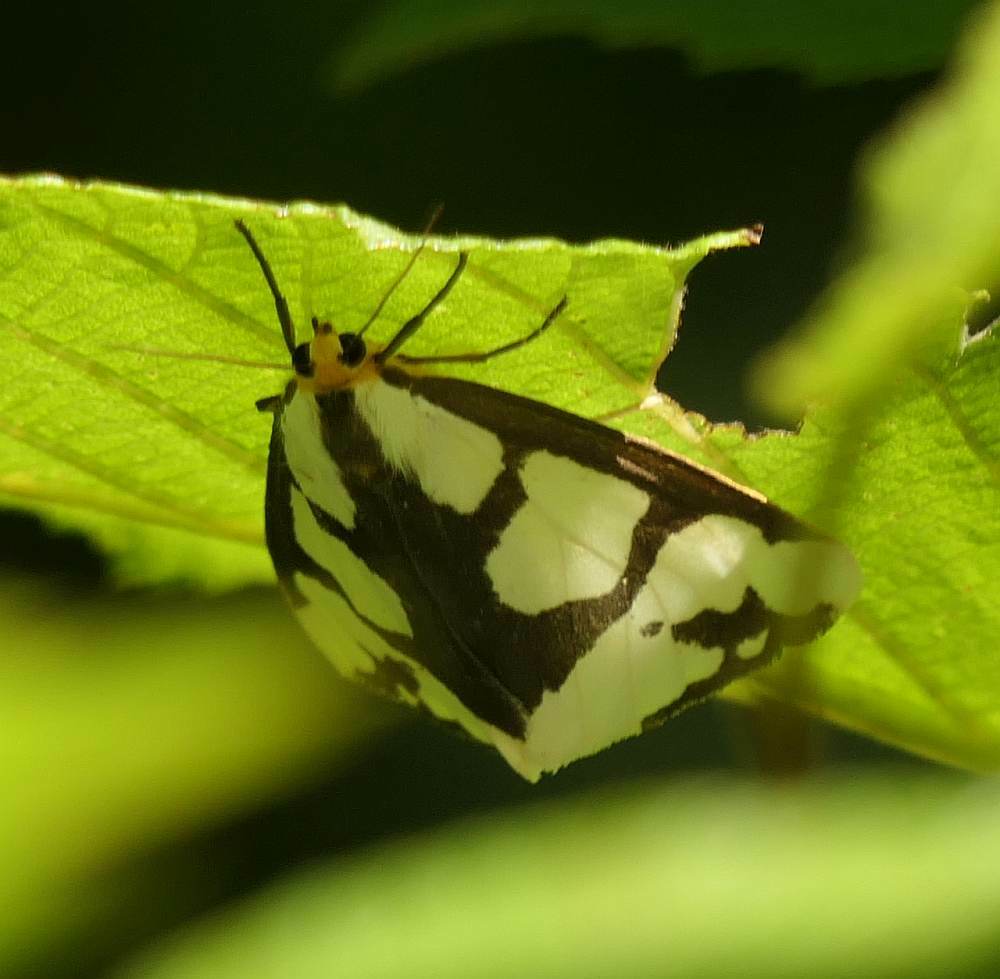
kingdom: Animalia
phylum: Arthropoda
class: Insecta
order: Lepidoptera
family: Erebidae
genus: Haploa
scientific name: Haploa lecontei
